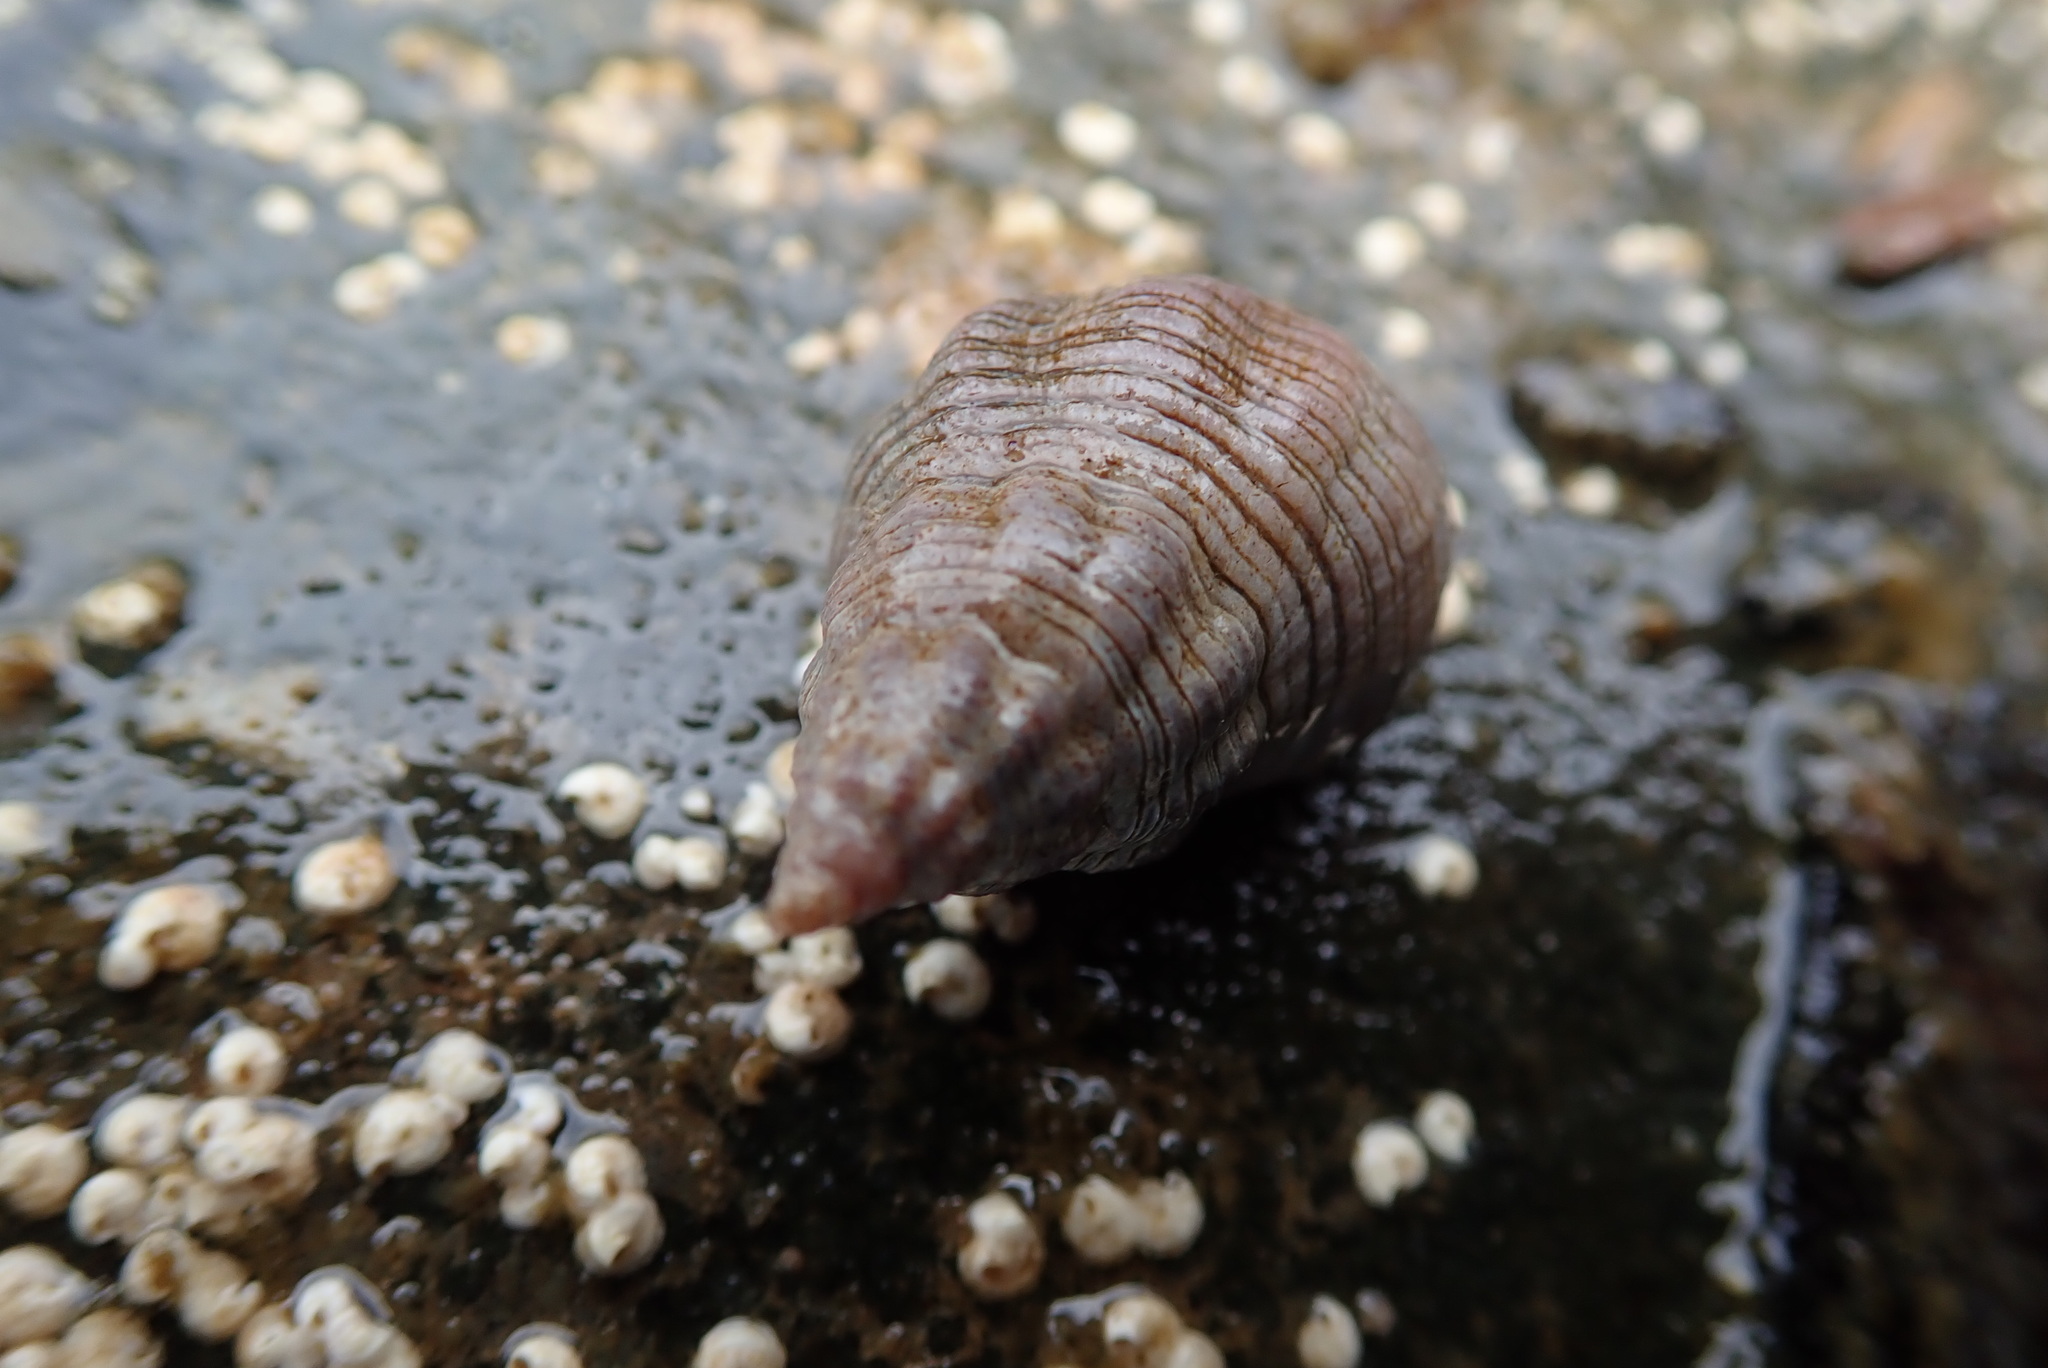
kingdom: Animalia
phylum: Mollusca
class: Gastropoda
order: Neogastropoda
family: Tudiclidae
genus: Lirabuccinum
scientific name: Lirabuccinum dirum
